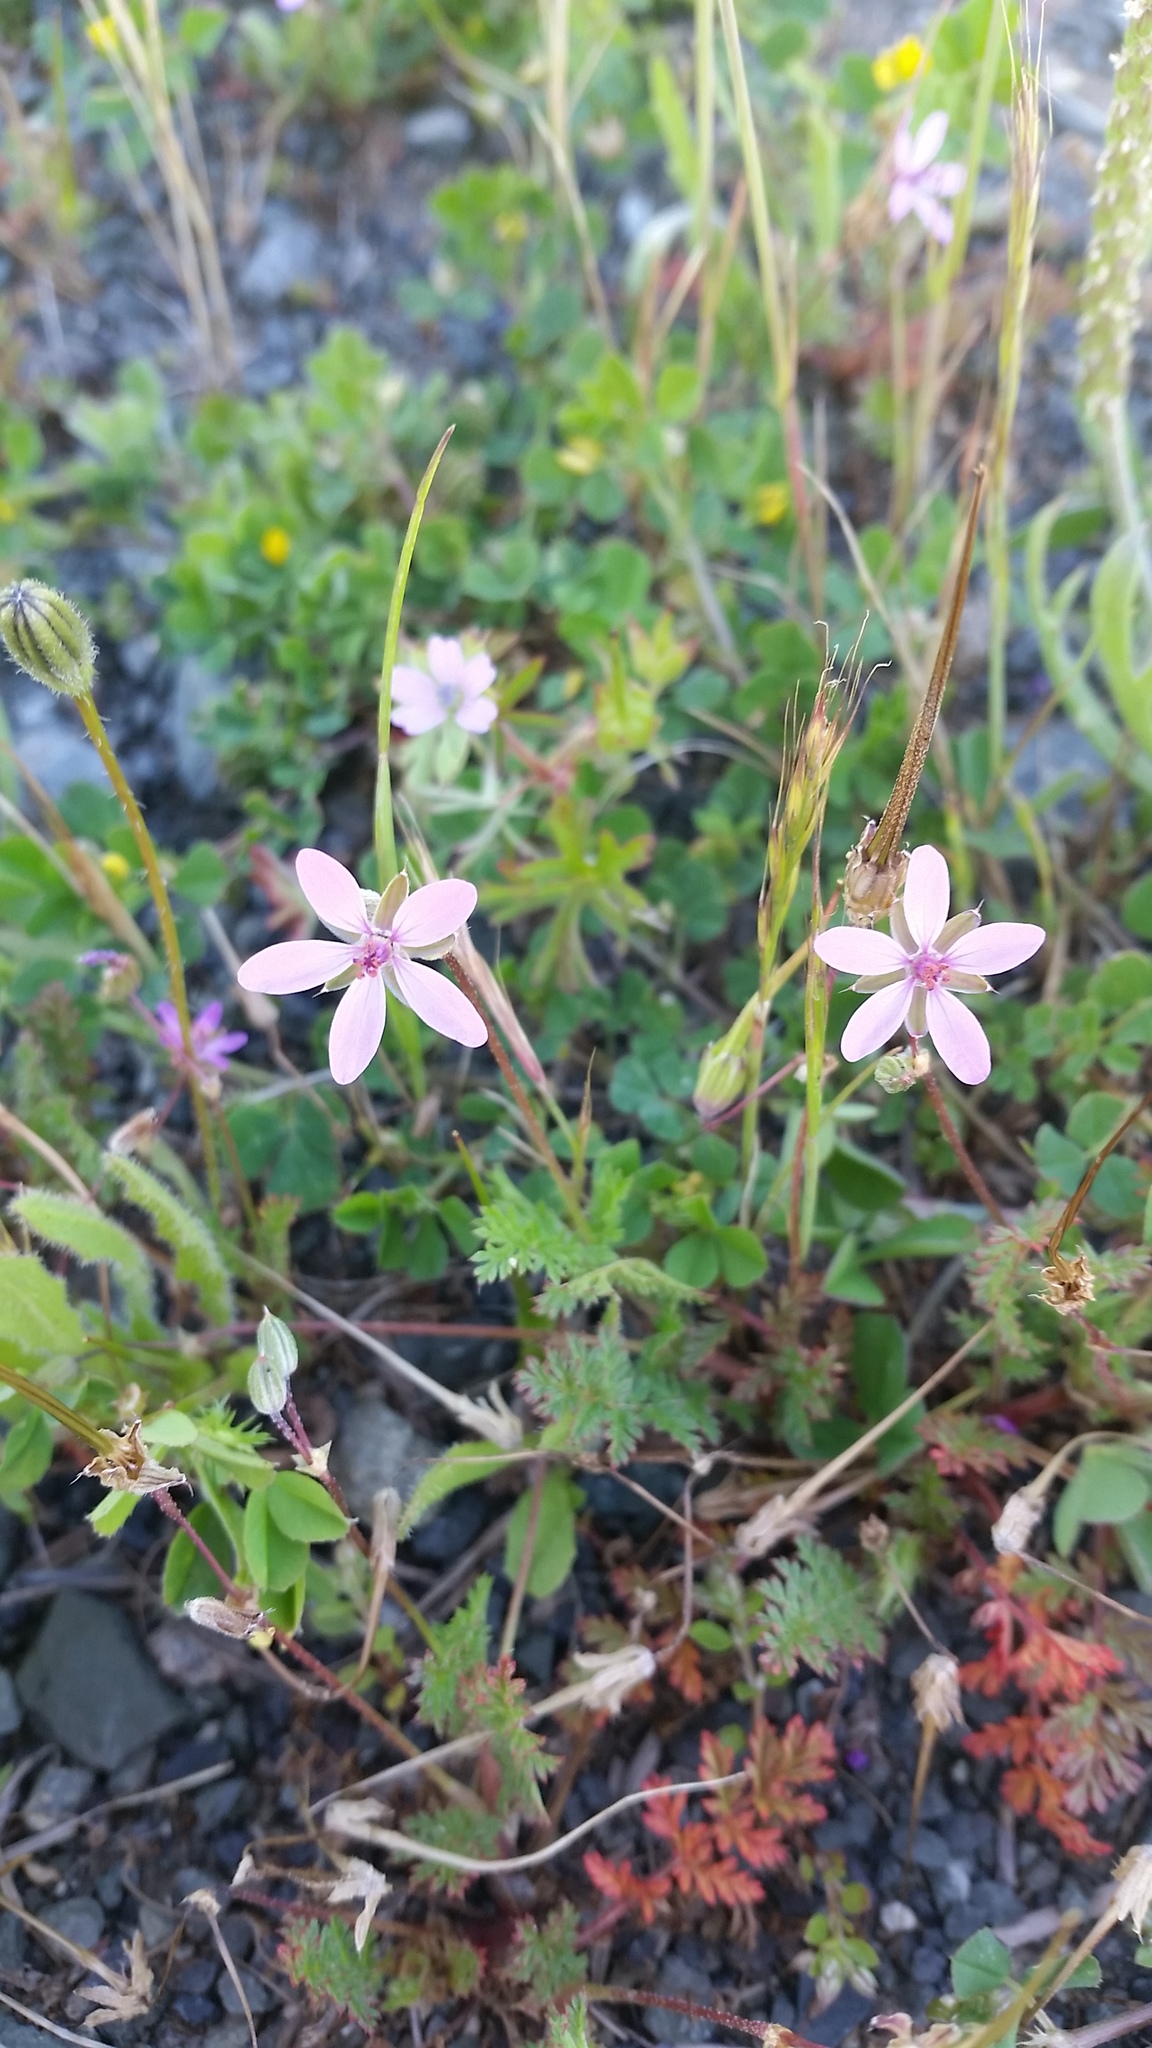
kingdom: Plantae
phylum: Tracheophyta
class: Magnoliopsida
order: Geraniales
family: Geraniaceae
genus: Erodium
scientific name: Erodium cicutarium
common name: Common stork's-bill
